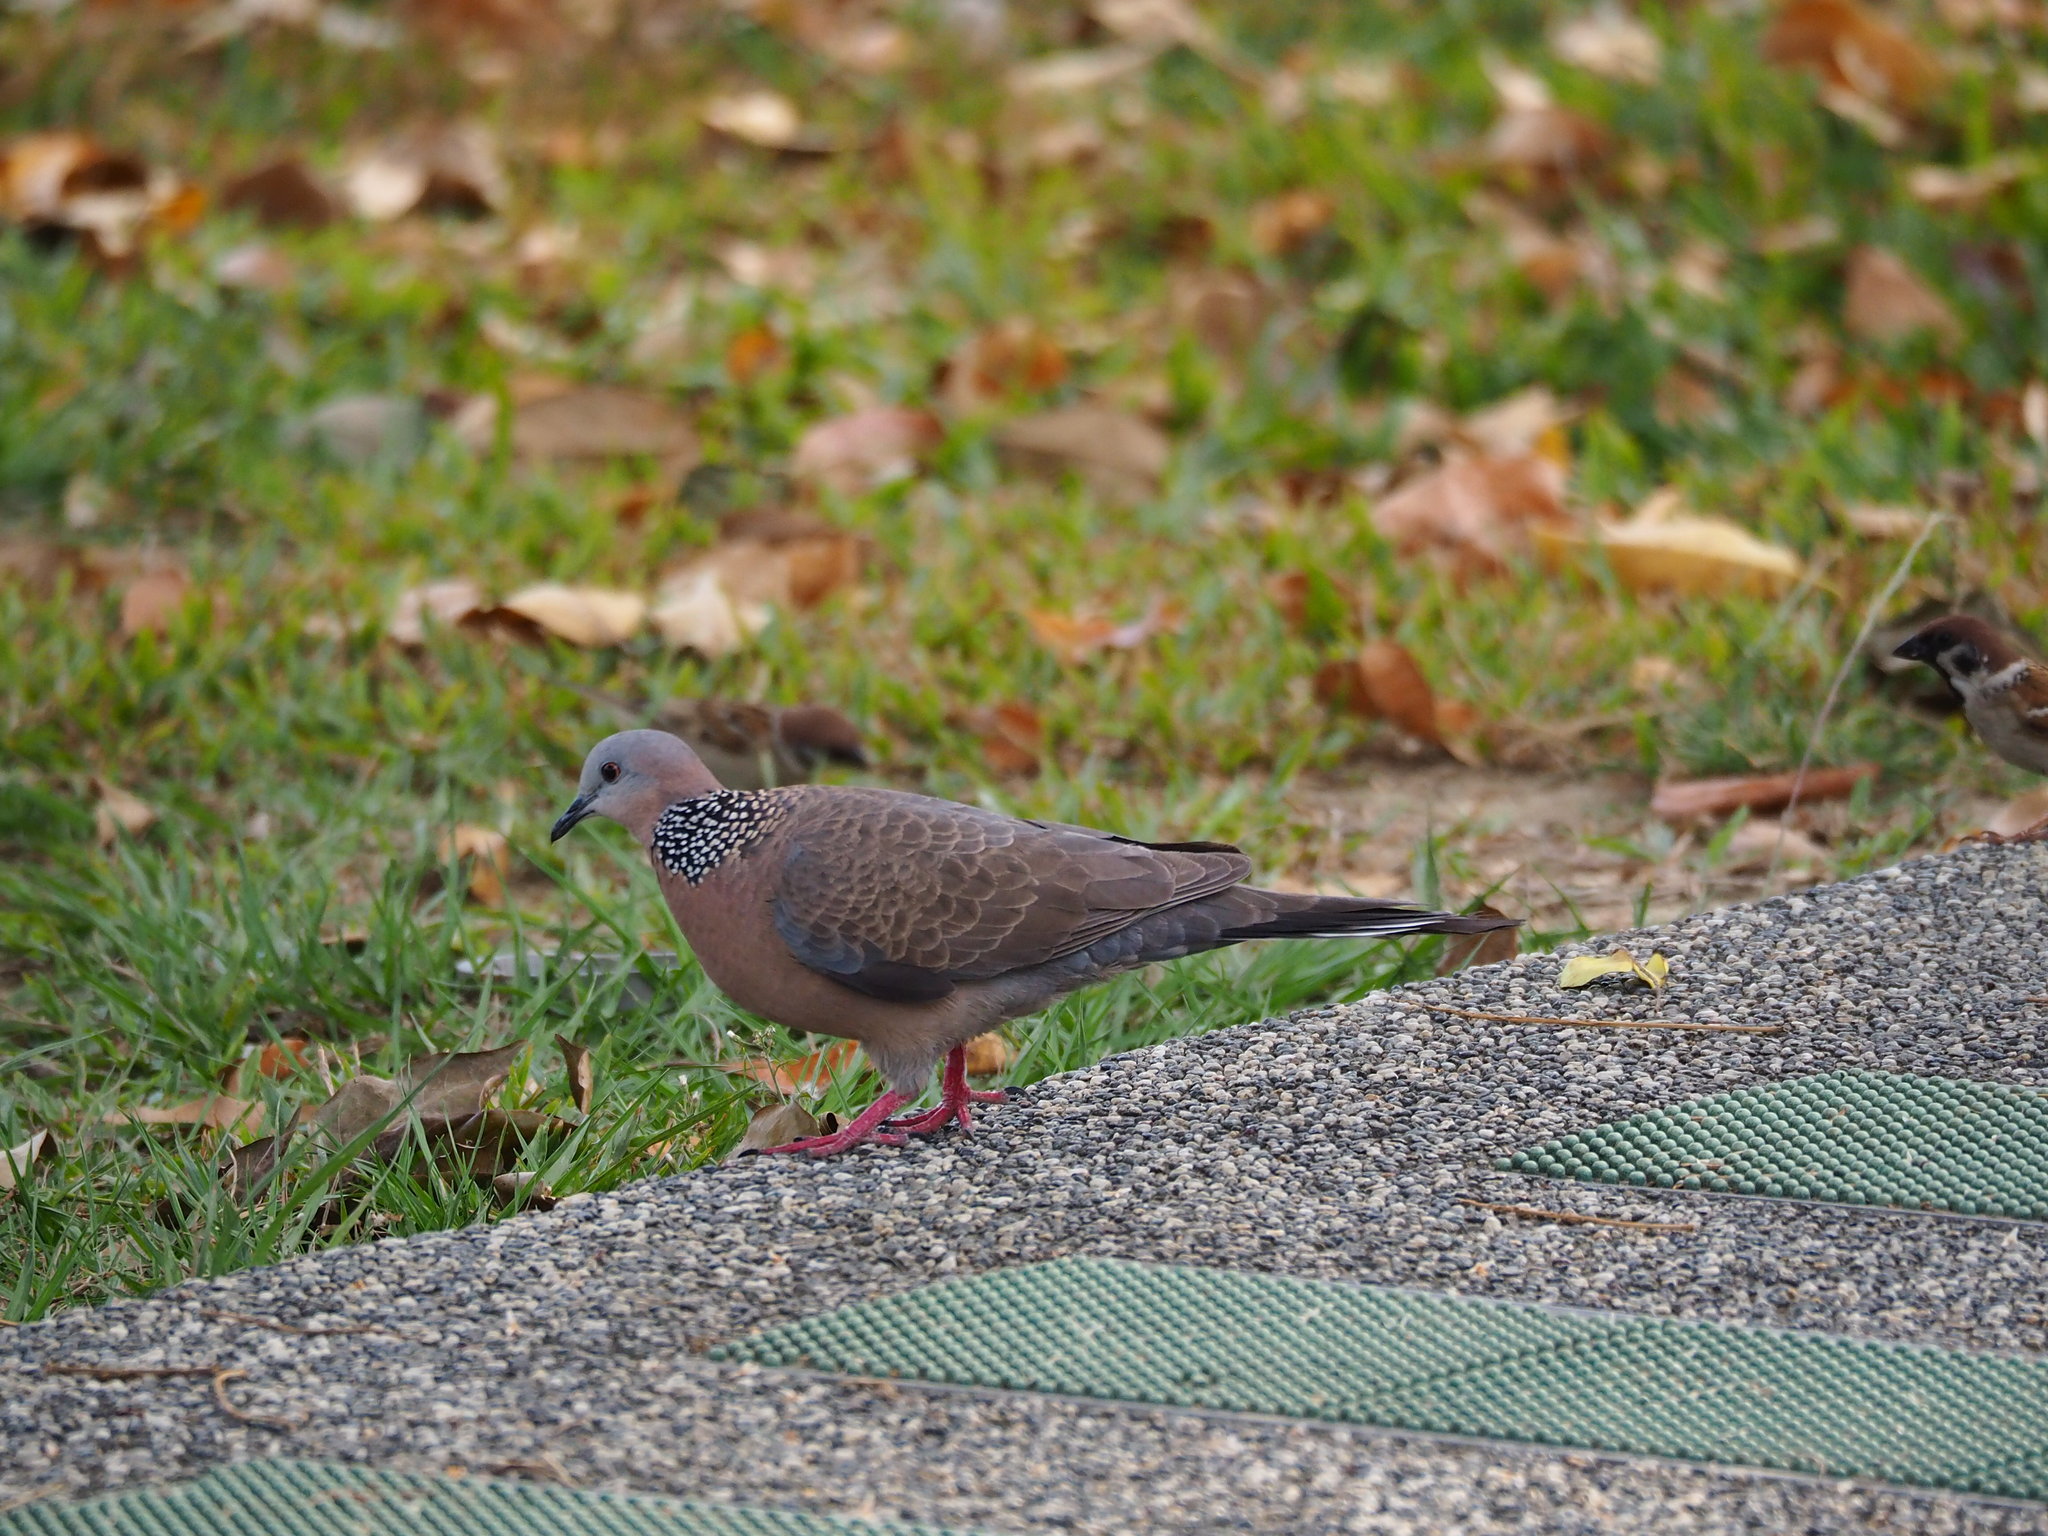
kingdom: Animalia
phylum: Chordata
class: Aves
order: Columbiformes
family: Columbidae
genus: Spilopelia
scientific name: Spilopelia chinensis
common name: Spotted dove
